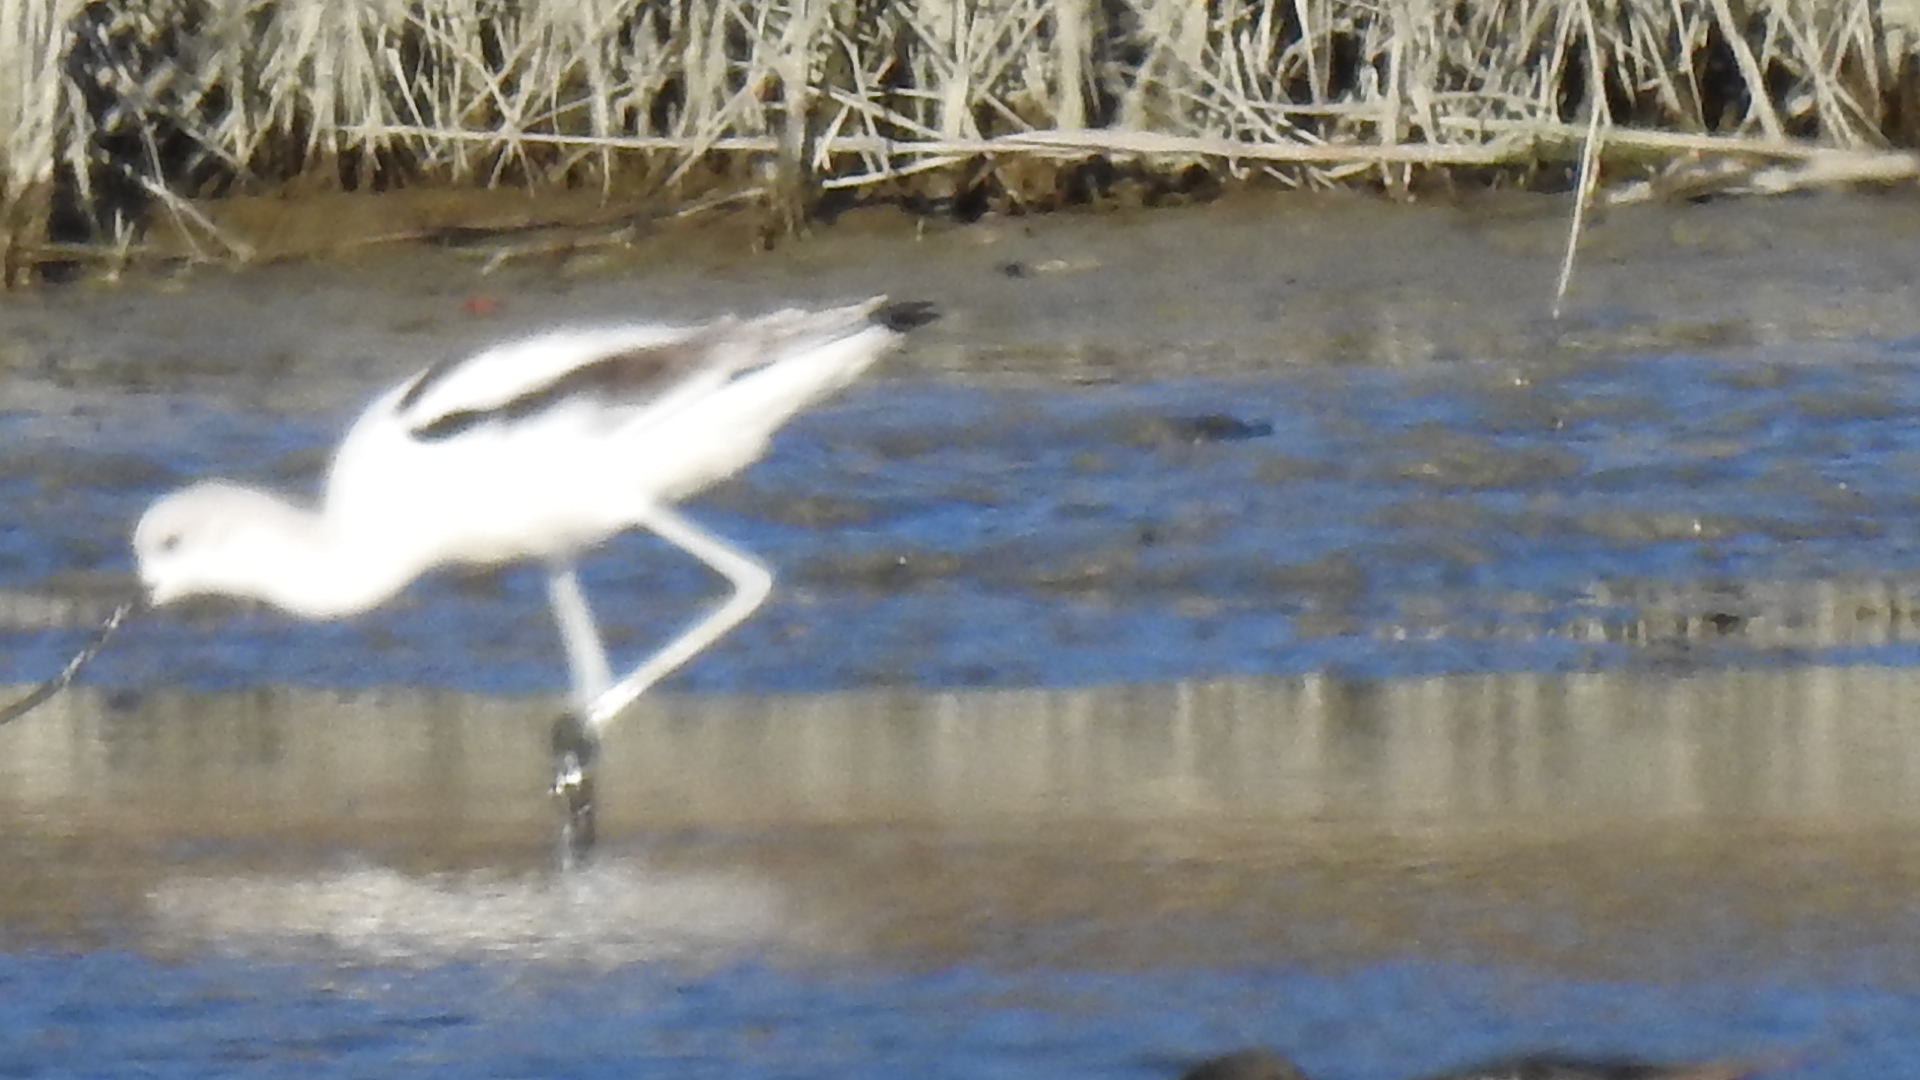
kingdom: Animalia
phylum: Chordata
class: Aves
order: Charadriiformes
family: Recurvirostridae
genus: Recurvirostra
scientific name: Recurvirostra americana
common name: American avocet
